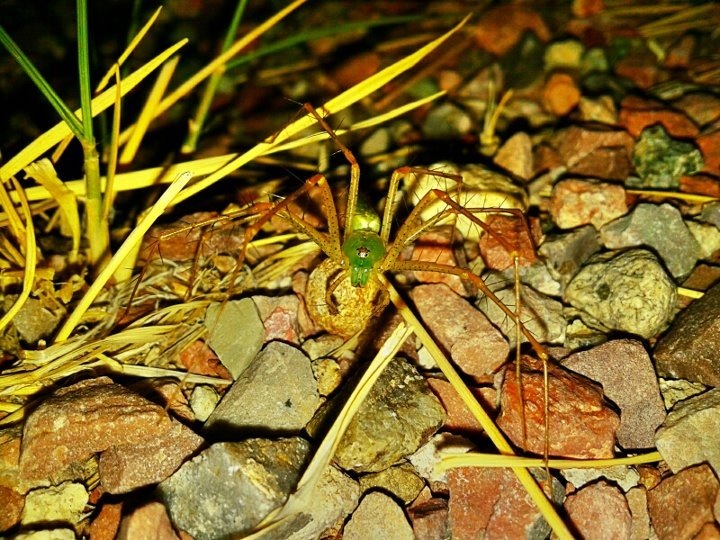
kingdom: Animalia
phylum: Arthropoda
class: Arachnida
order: Araneae
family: Oxyopidae
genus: Peucetia
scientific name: Peucetia viridans
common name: Lynx spiders
